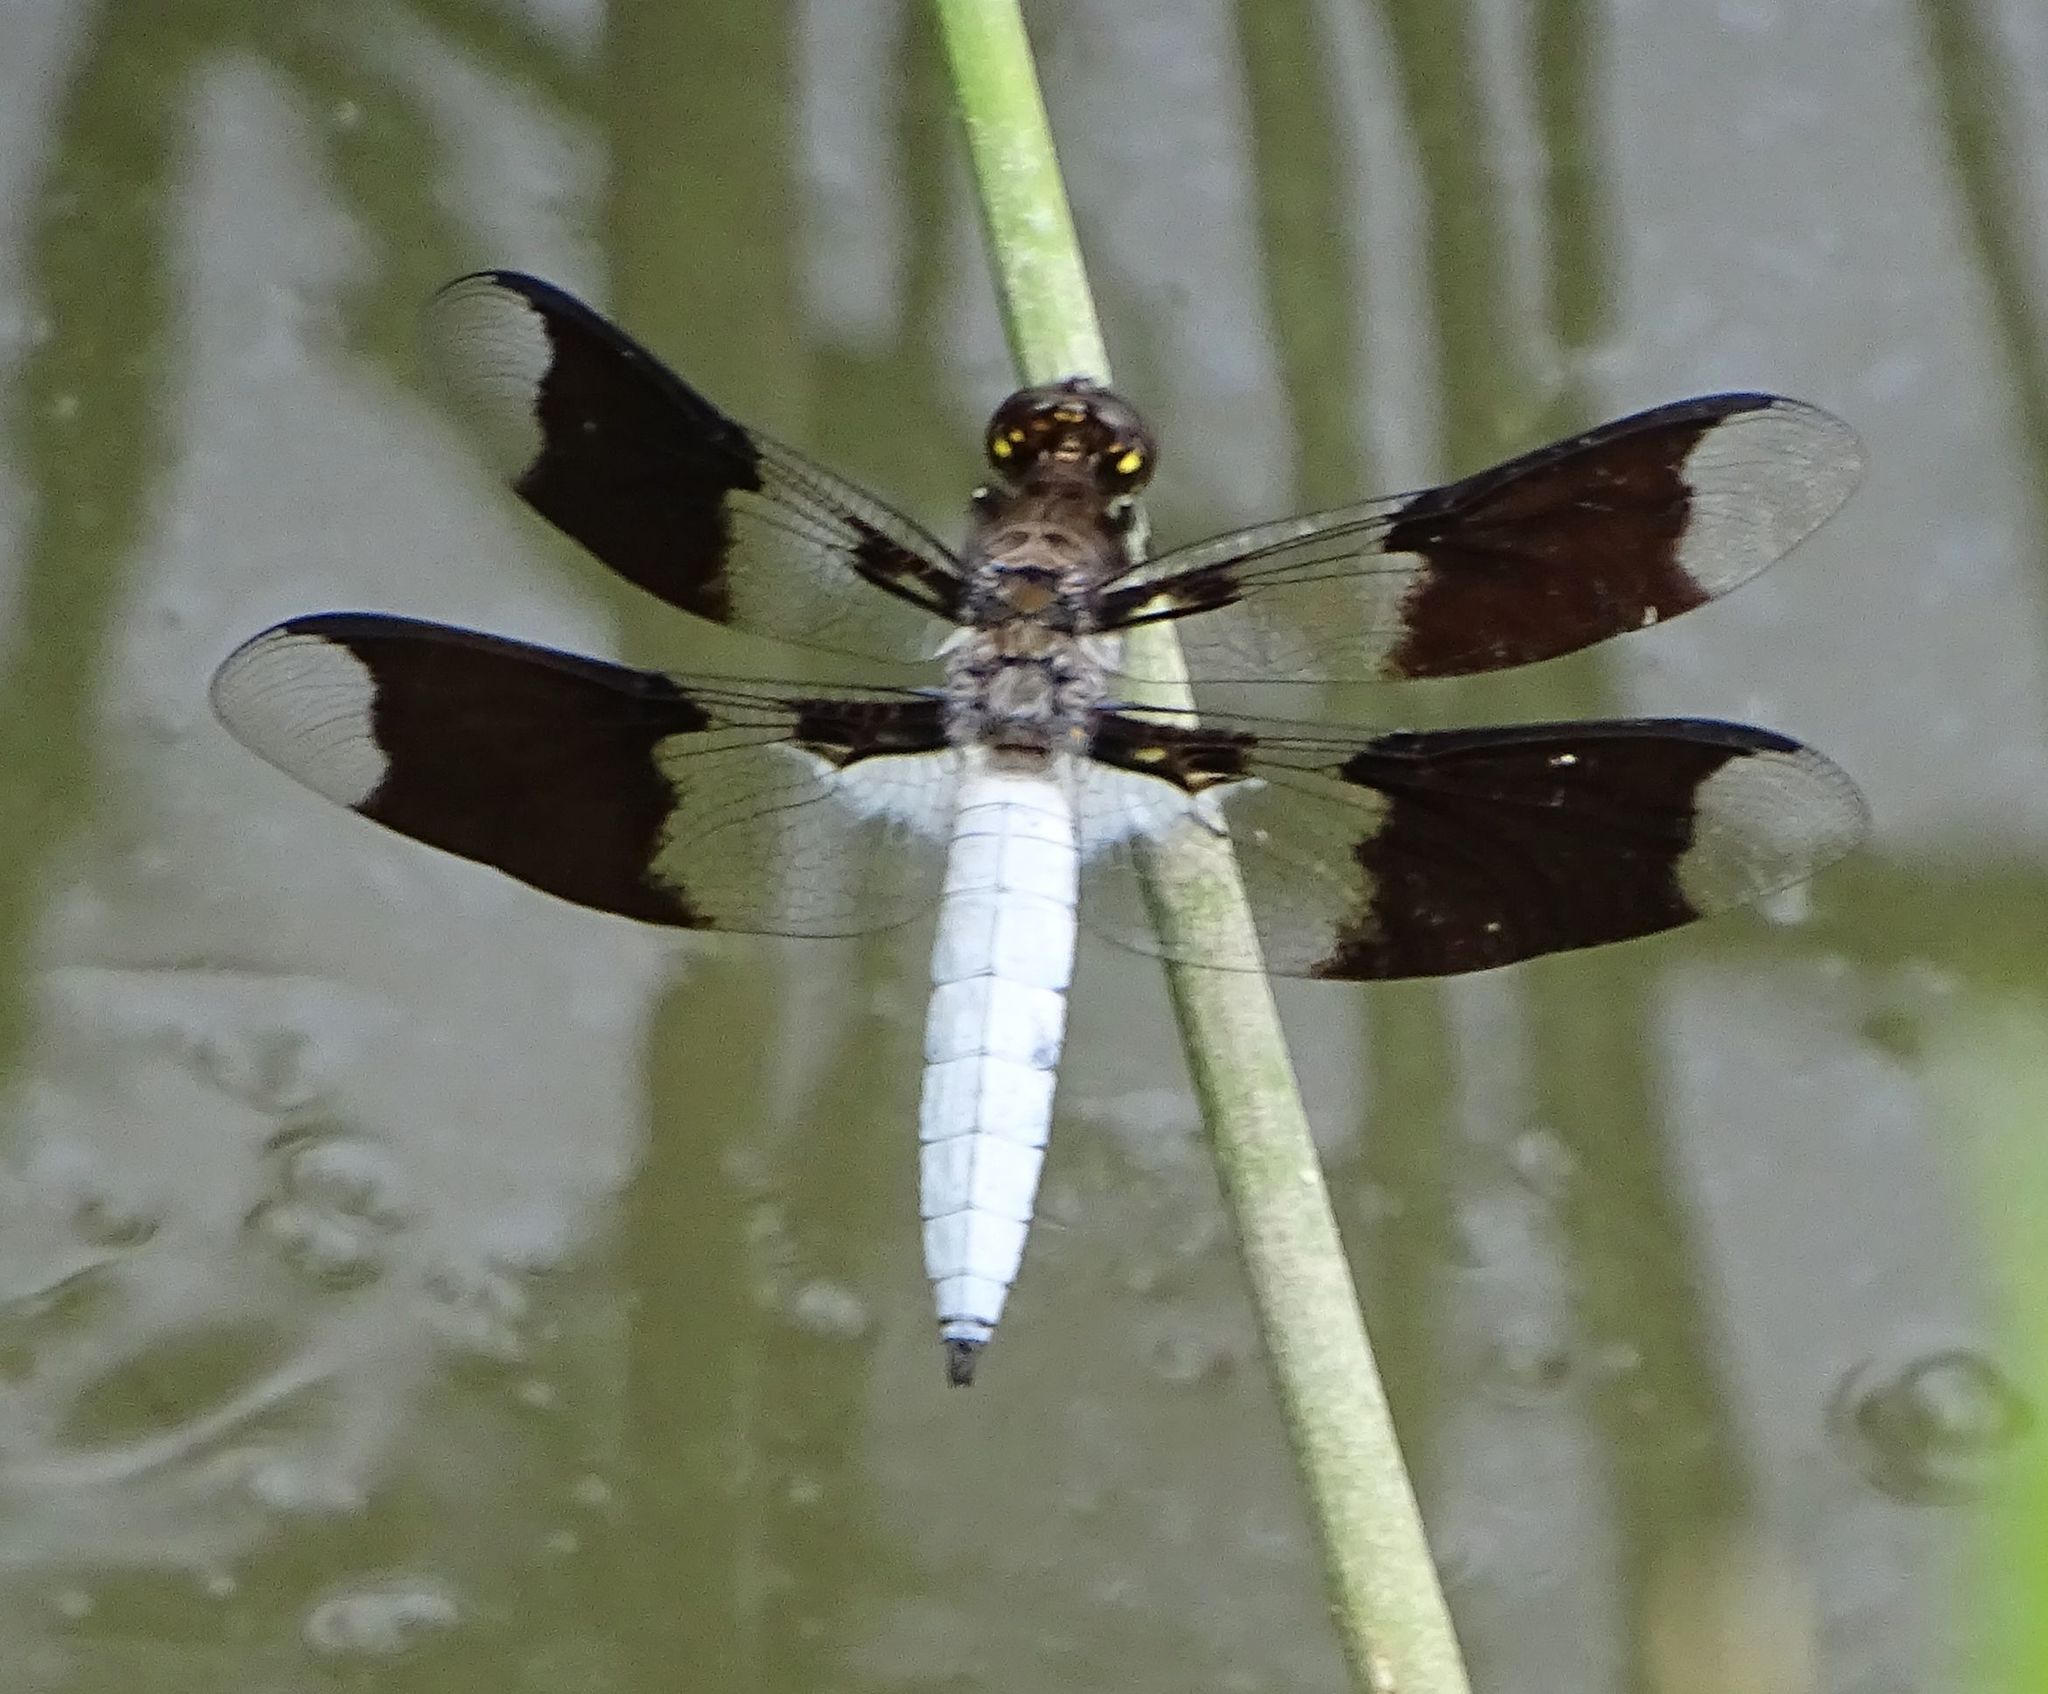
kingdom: Animalia
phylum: Arthropoda
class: Insecta
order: Odonata
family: Libellulidae
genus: Plathemis
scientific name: Plathemis lydia
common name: Common whitetail
